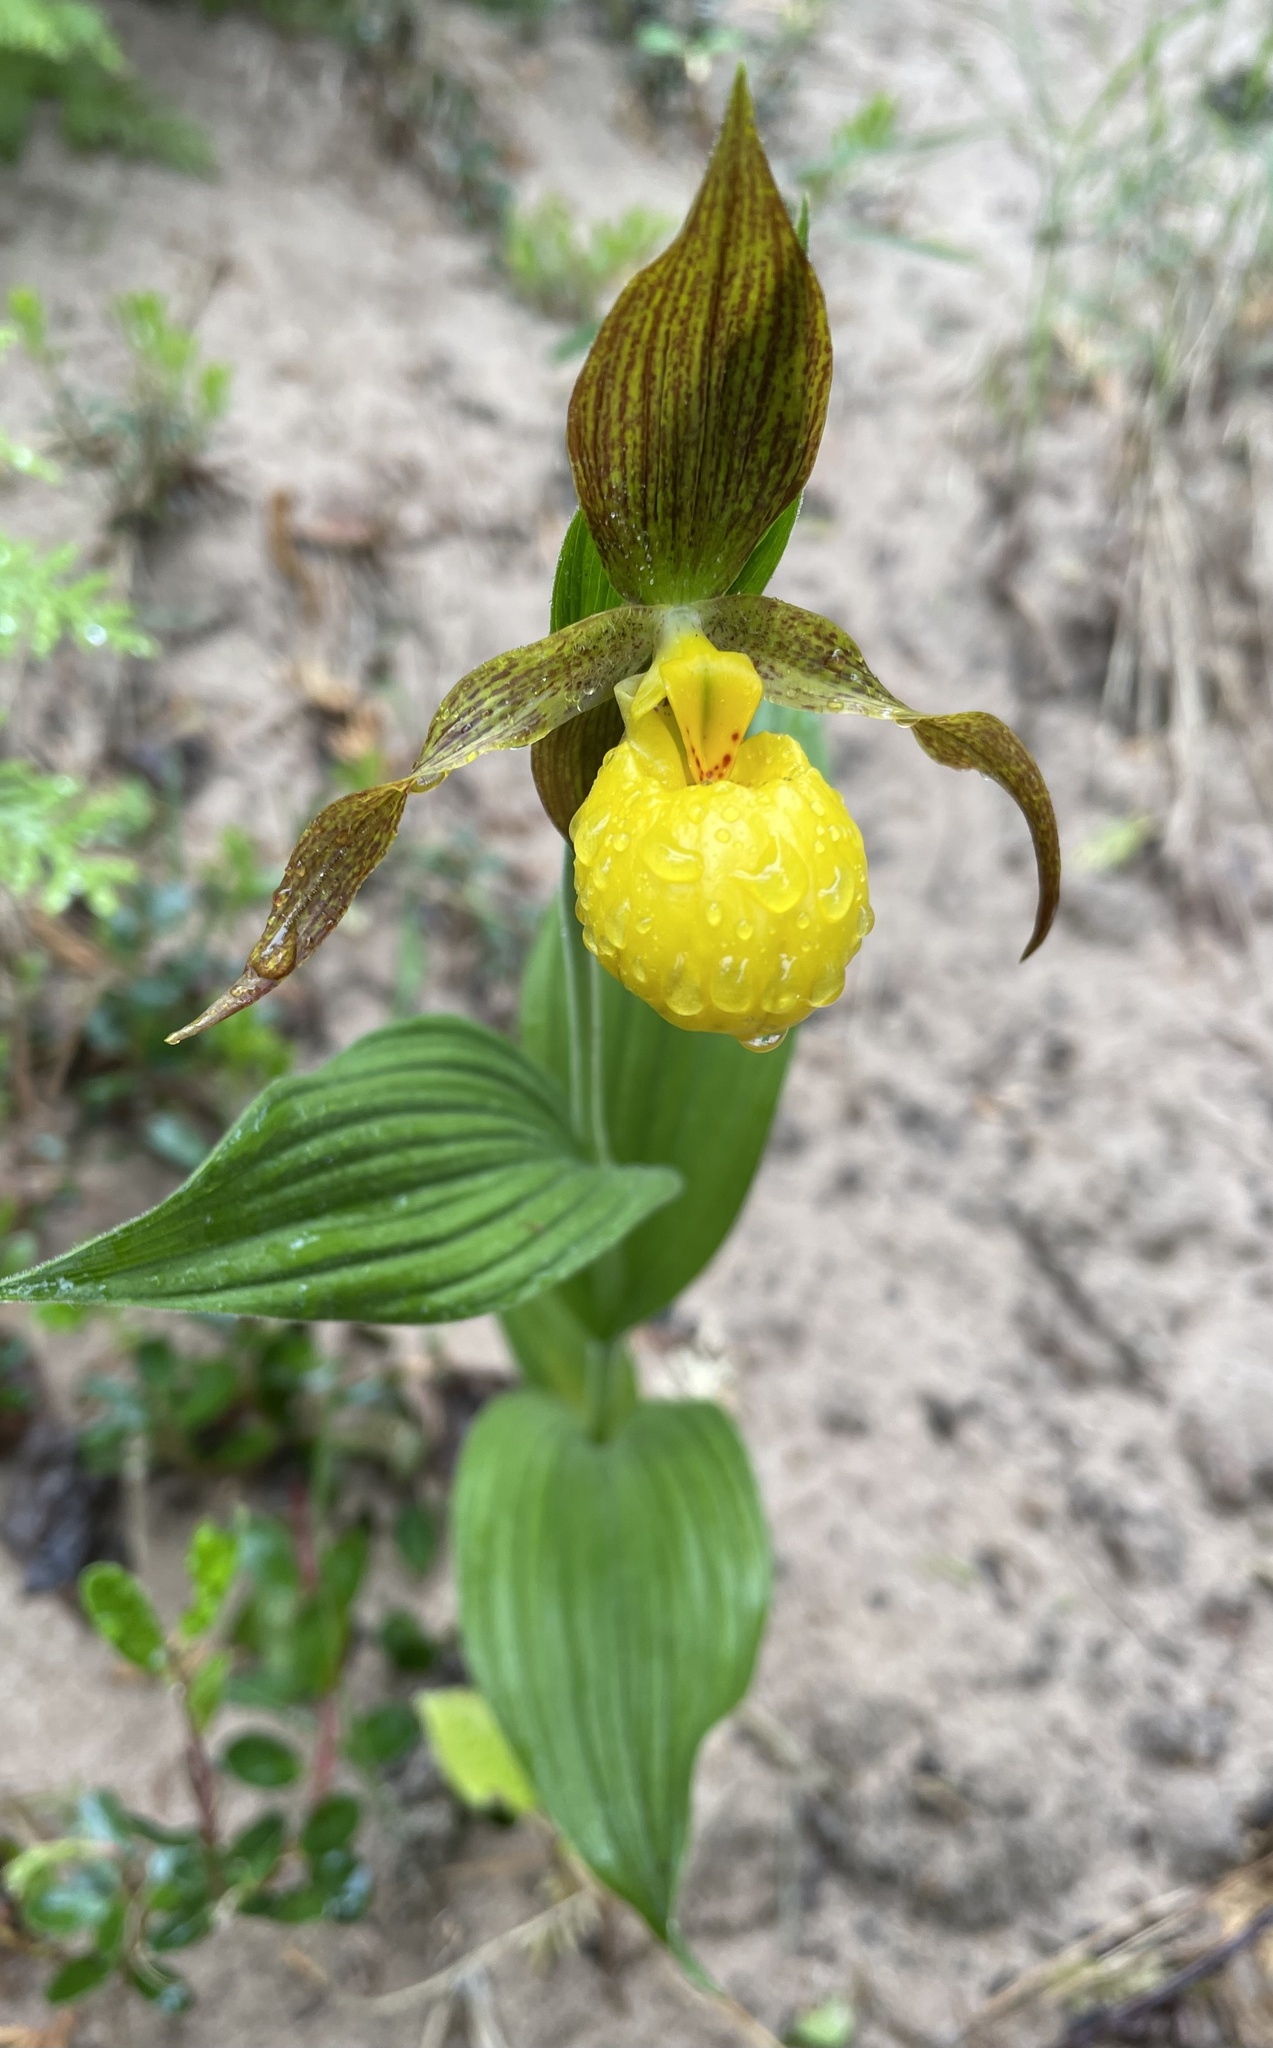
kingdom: Plantae
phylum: Tracheophyta
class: Liliopsida
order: Asparagales
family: Orchidaceae
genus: Cypripedium
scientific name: Cypripedium parviflorum
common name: American yellow lady's-slipper
